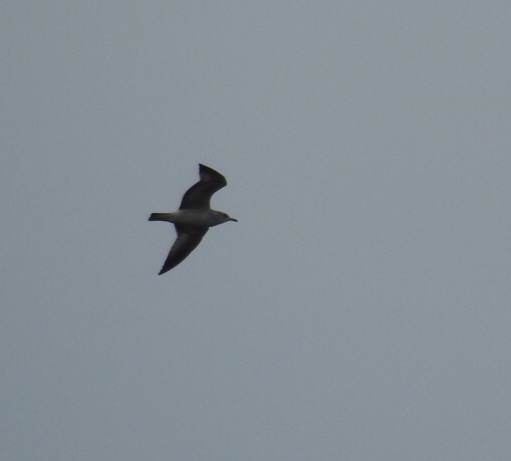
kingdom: Animalia
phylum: Chordata
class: Aves
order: Charadriiformes
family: Laridae
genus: Larus
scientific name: Larus
